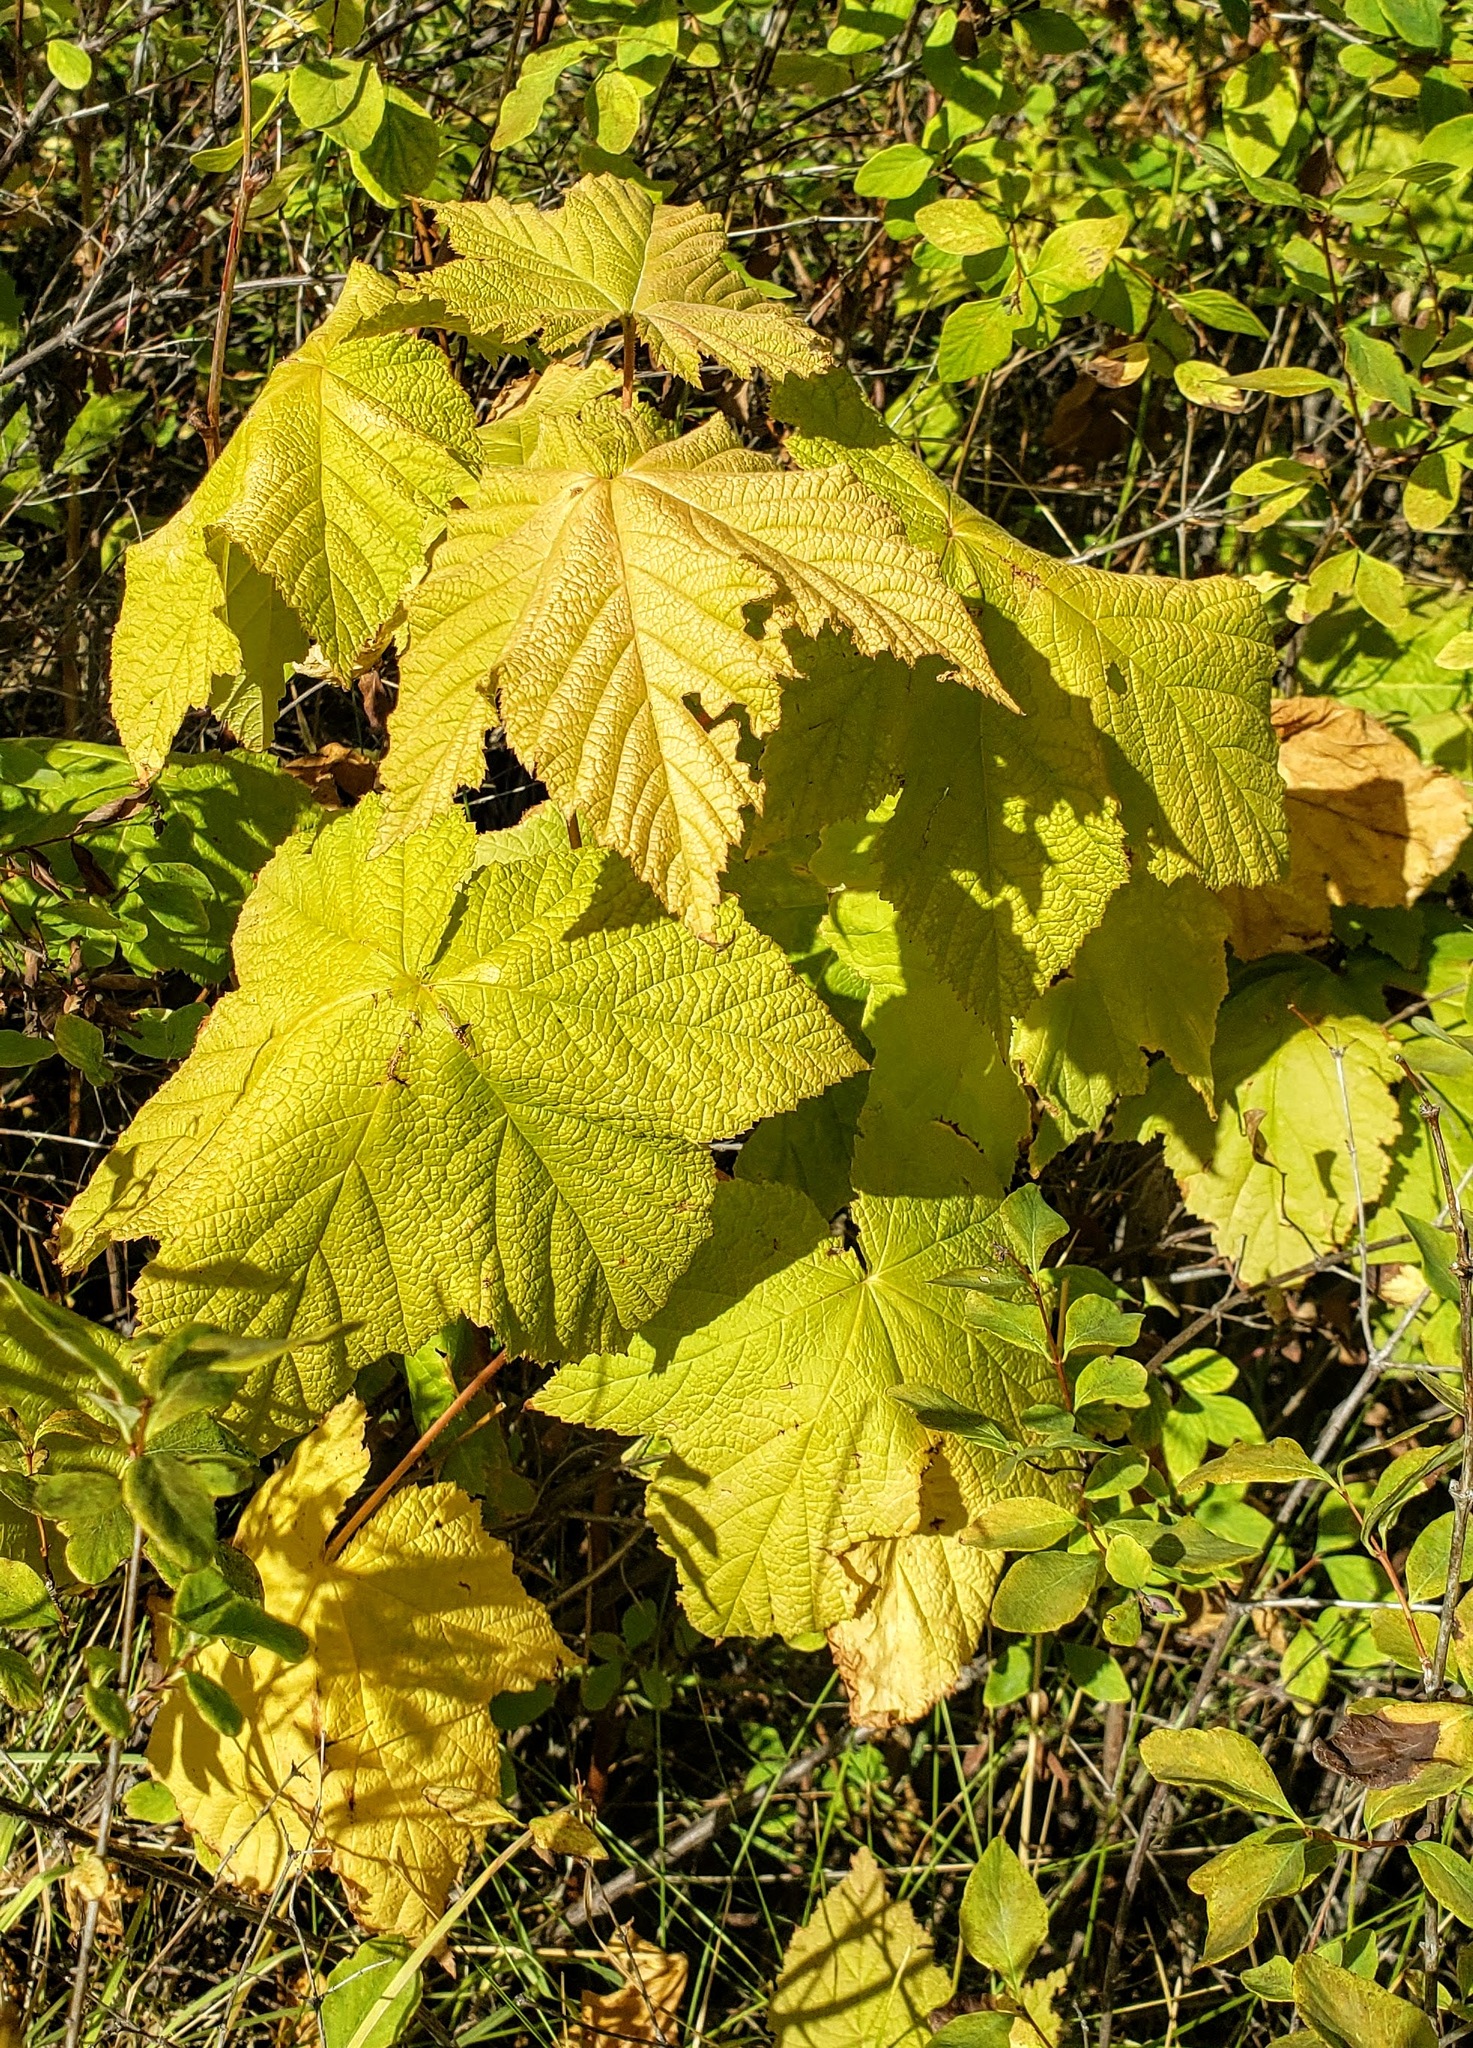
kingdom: Plantae
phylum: Tracheophyta
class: Magnoliopsida
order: Rosales
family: Rosaceae
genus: Rubus
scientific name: Rubus parviflorus
